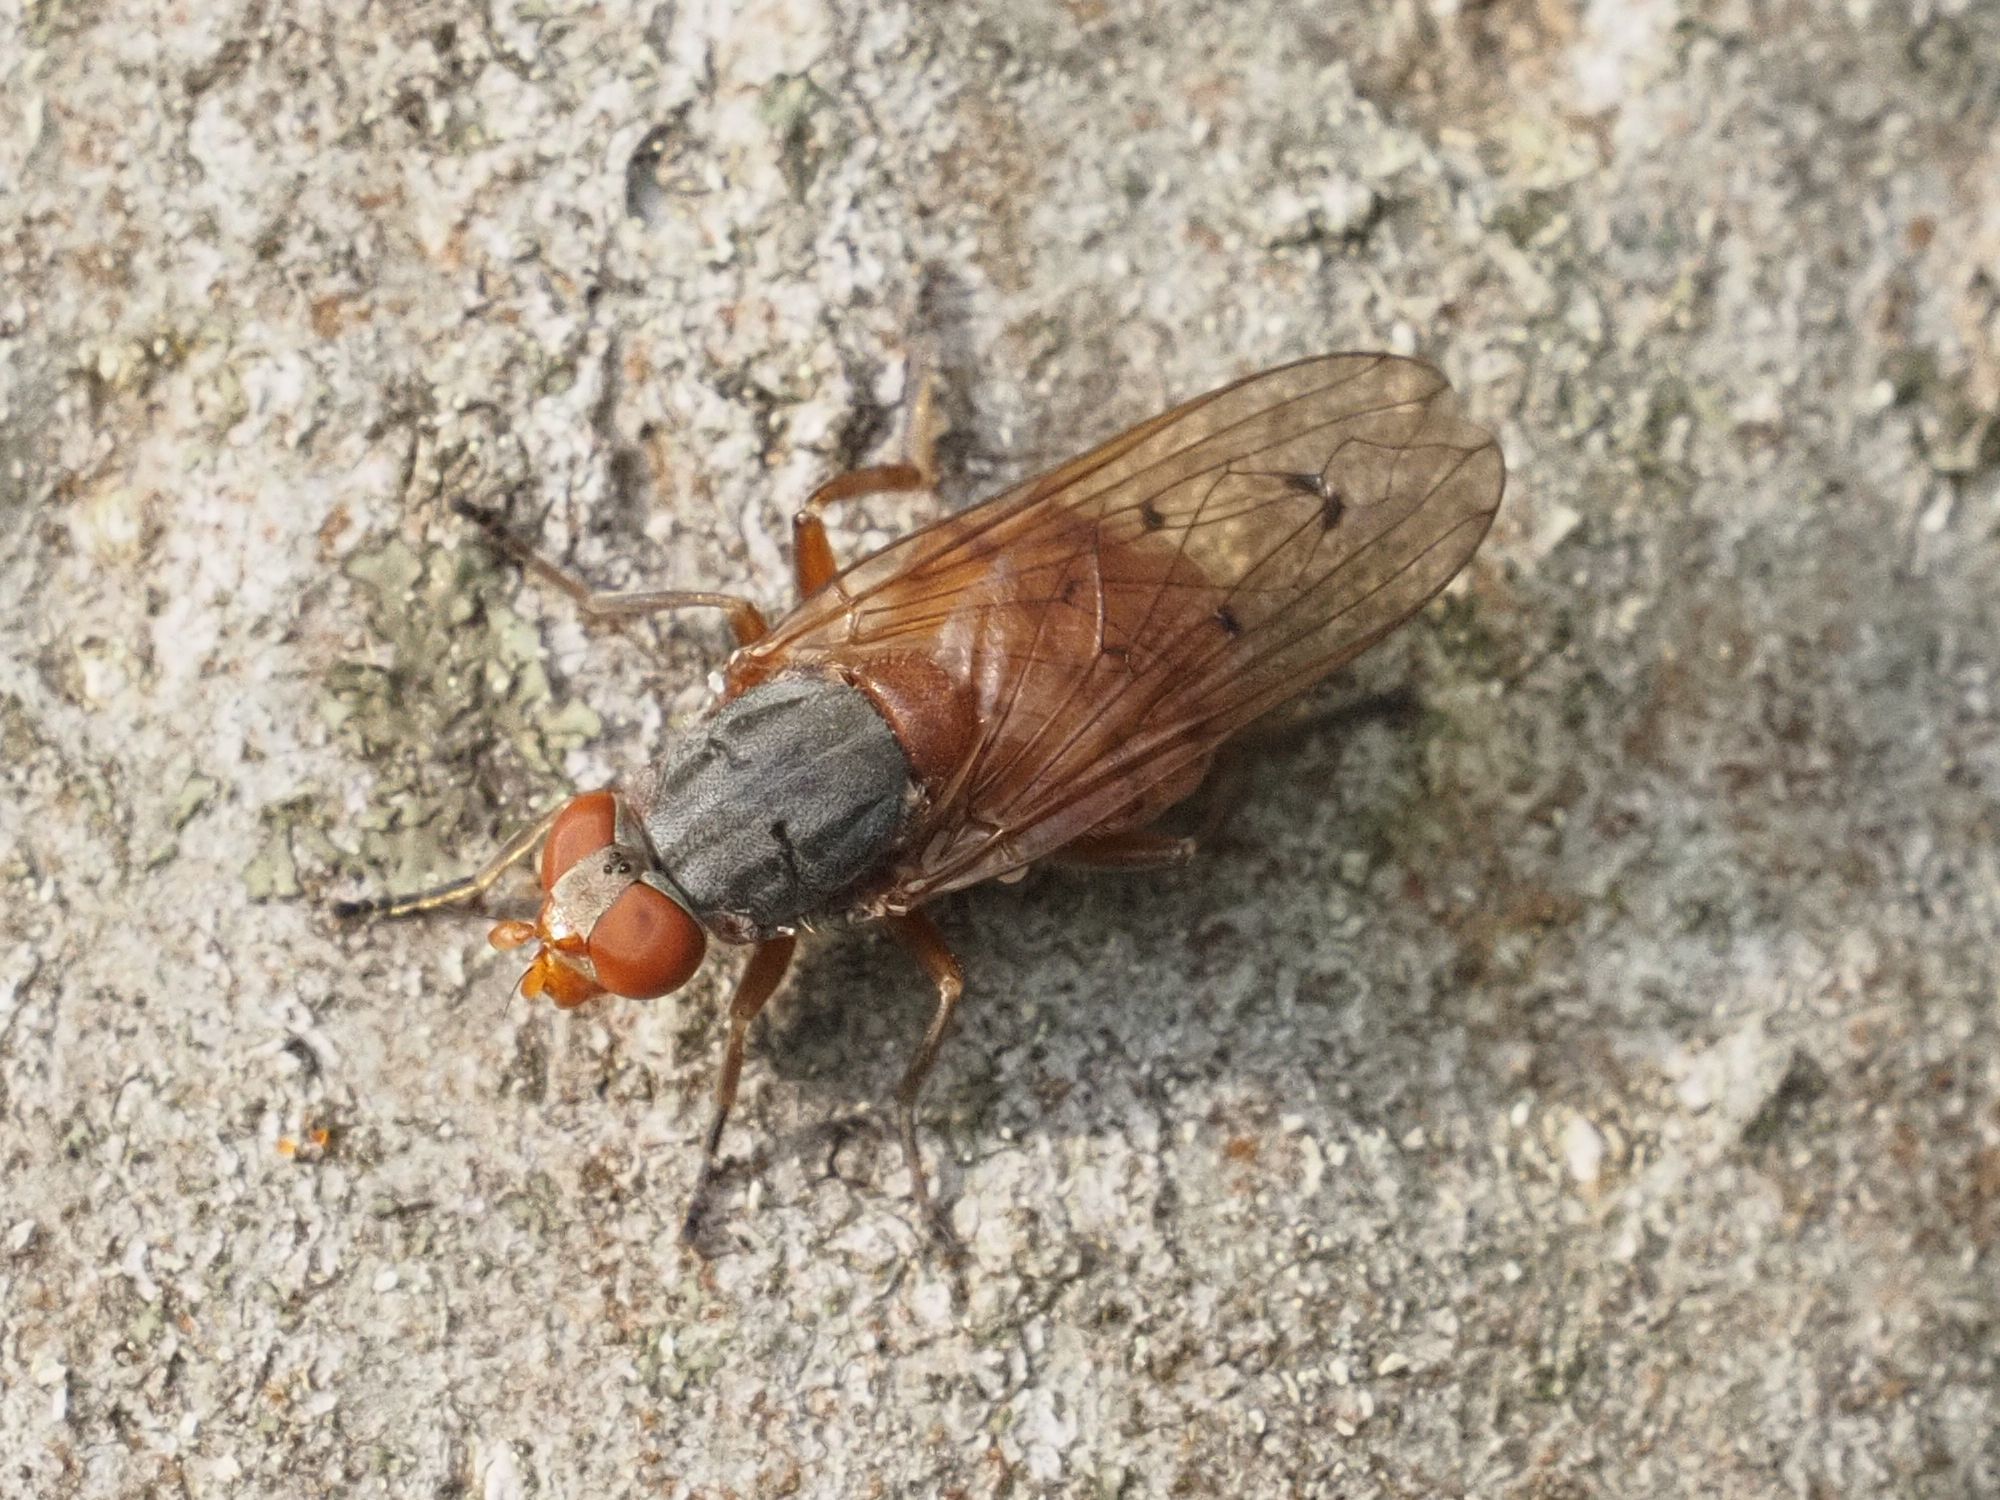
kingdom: Animalia
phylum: Arthropoda
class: Insecta
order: Diptera
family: Syrphidae
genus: Brachyopa
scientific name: Brachyopa maculipennis
